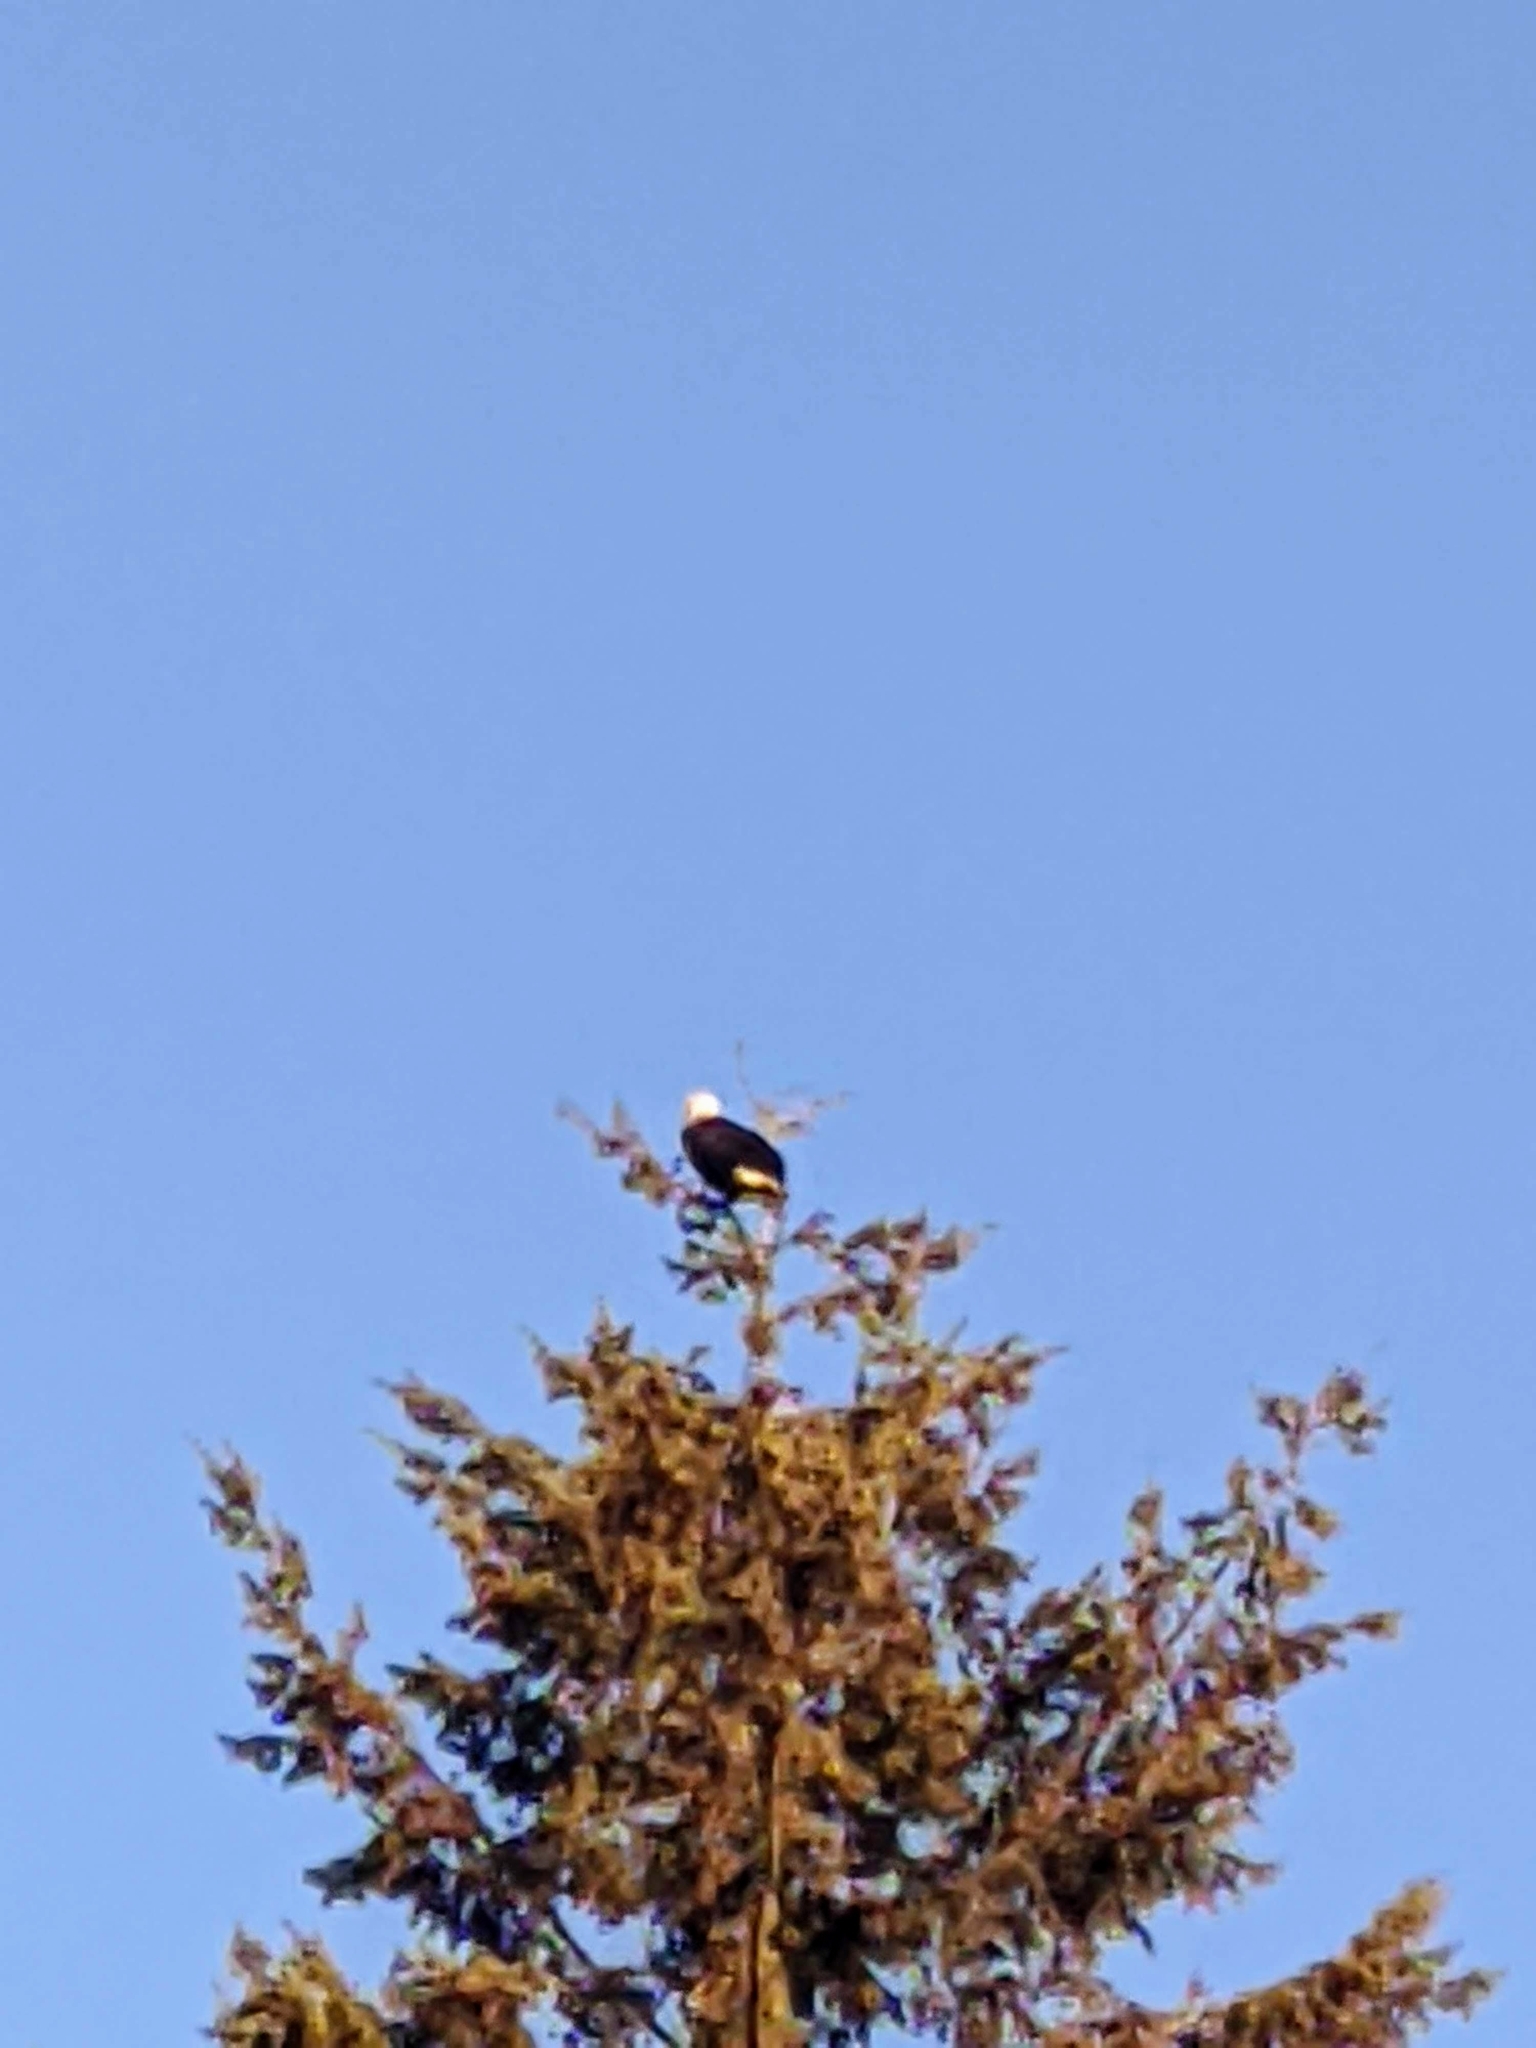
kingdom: Animalia
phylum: Chordata
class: Aves
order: Accipitriformes
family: Accipitridae
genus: Haliaeetus
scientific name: Haliaeetus leucocephalus
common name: Bald eagle
